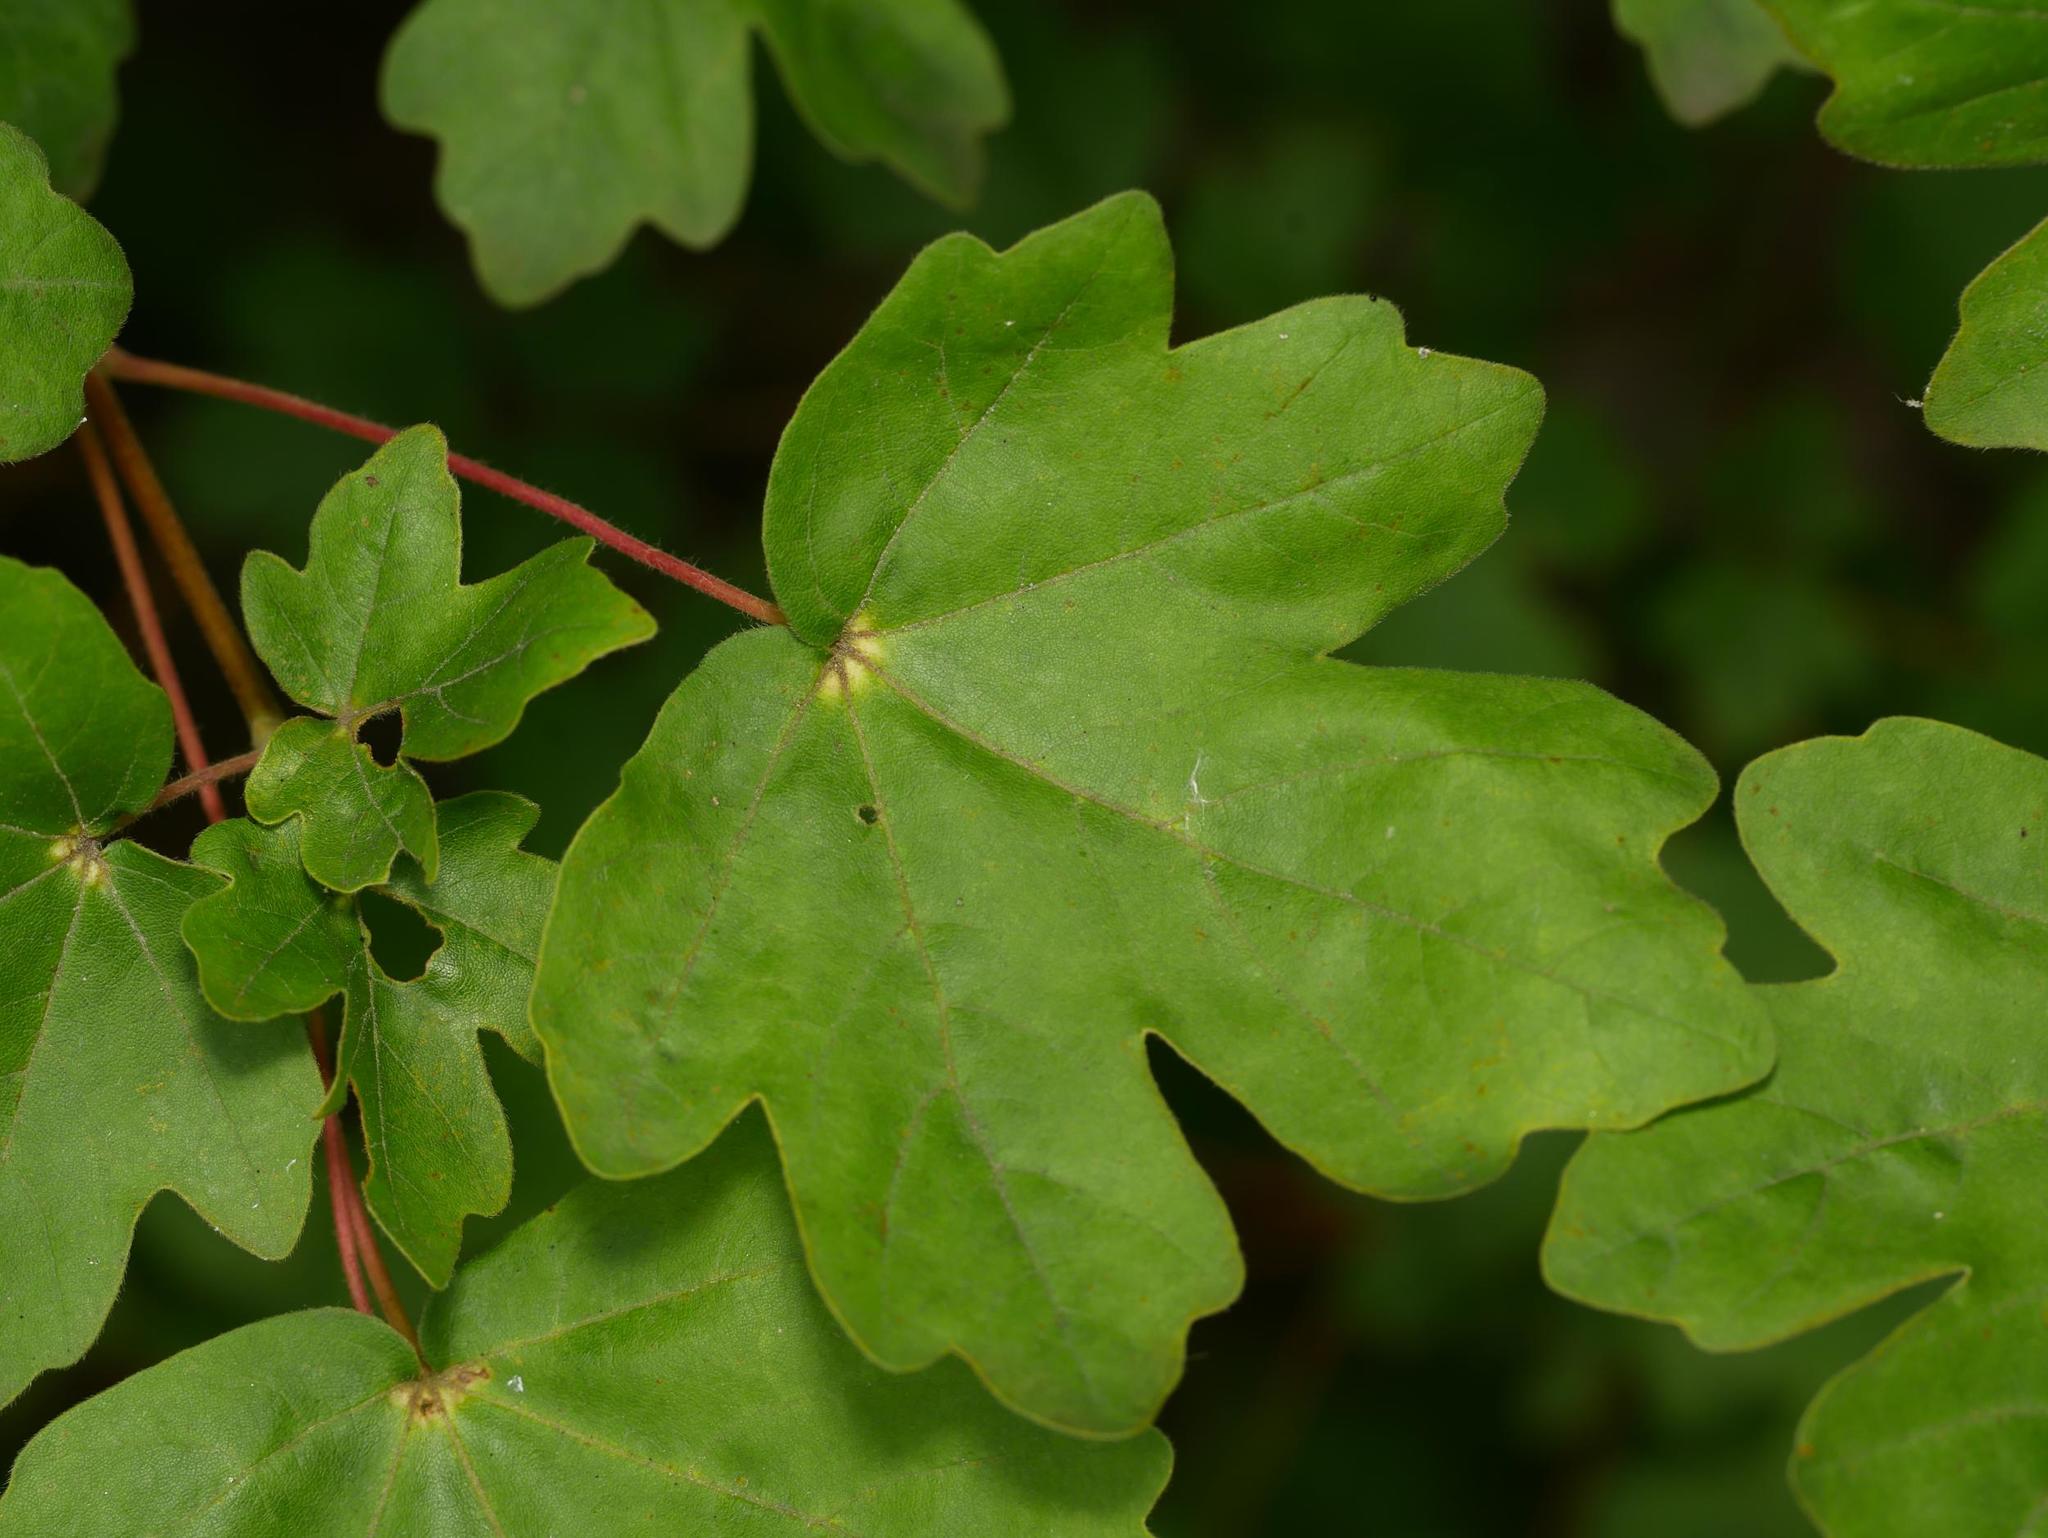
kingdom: Plantae
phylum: Tracheophyta
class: Magnoliopsida
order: Sapindales
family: Sapindaceae
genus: Acer
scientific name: Acer campestre
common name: Field maple
